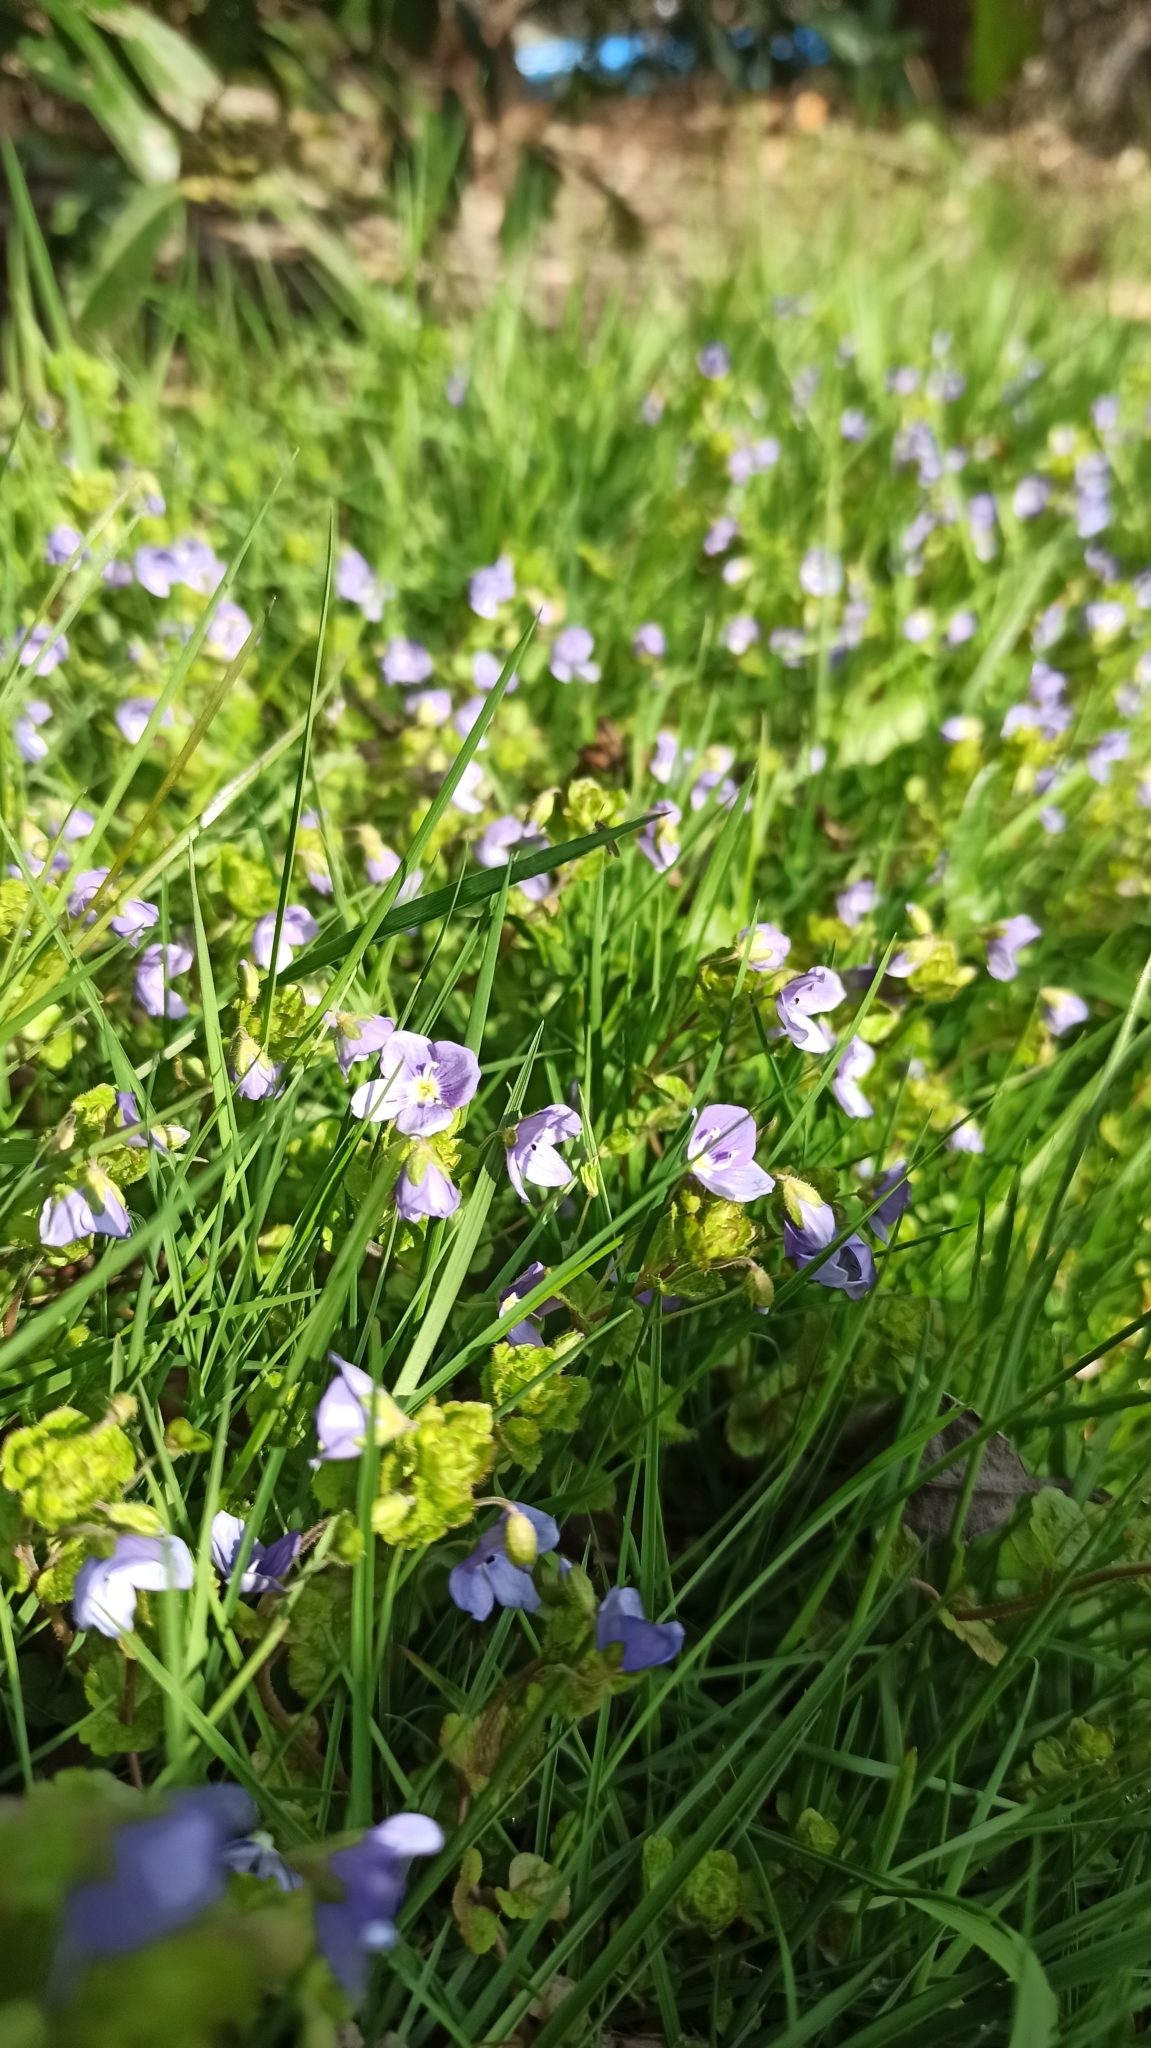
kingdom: Plantae
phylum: Tracheophyta
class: Magnoliopsida
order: Lamiales
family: Plantaginaceae
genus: Veronica
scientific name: Veronica filiformis
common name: Slender speedwell
